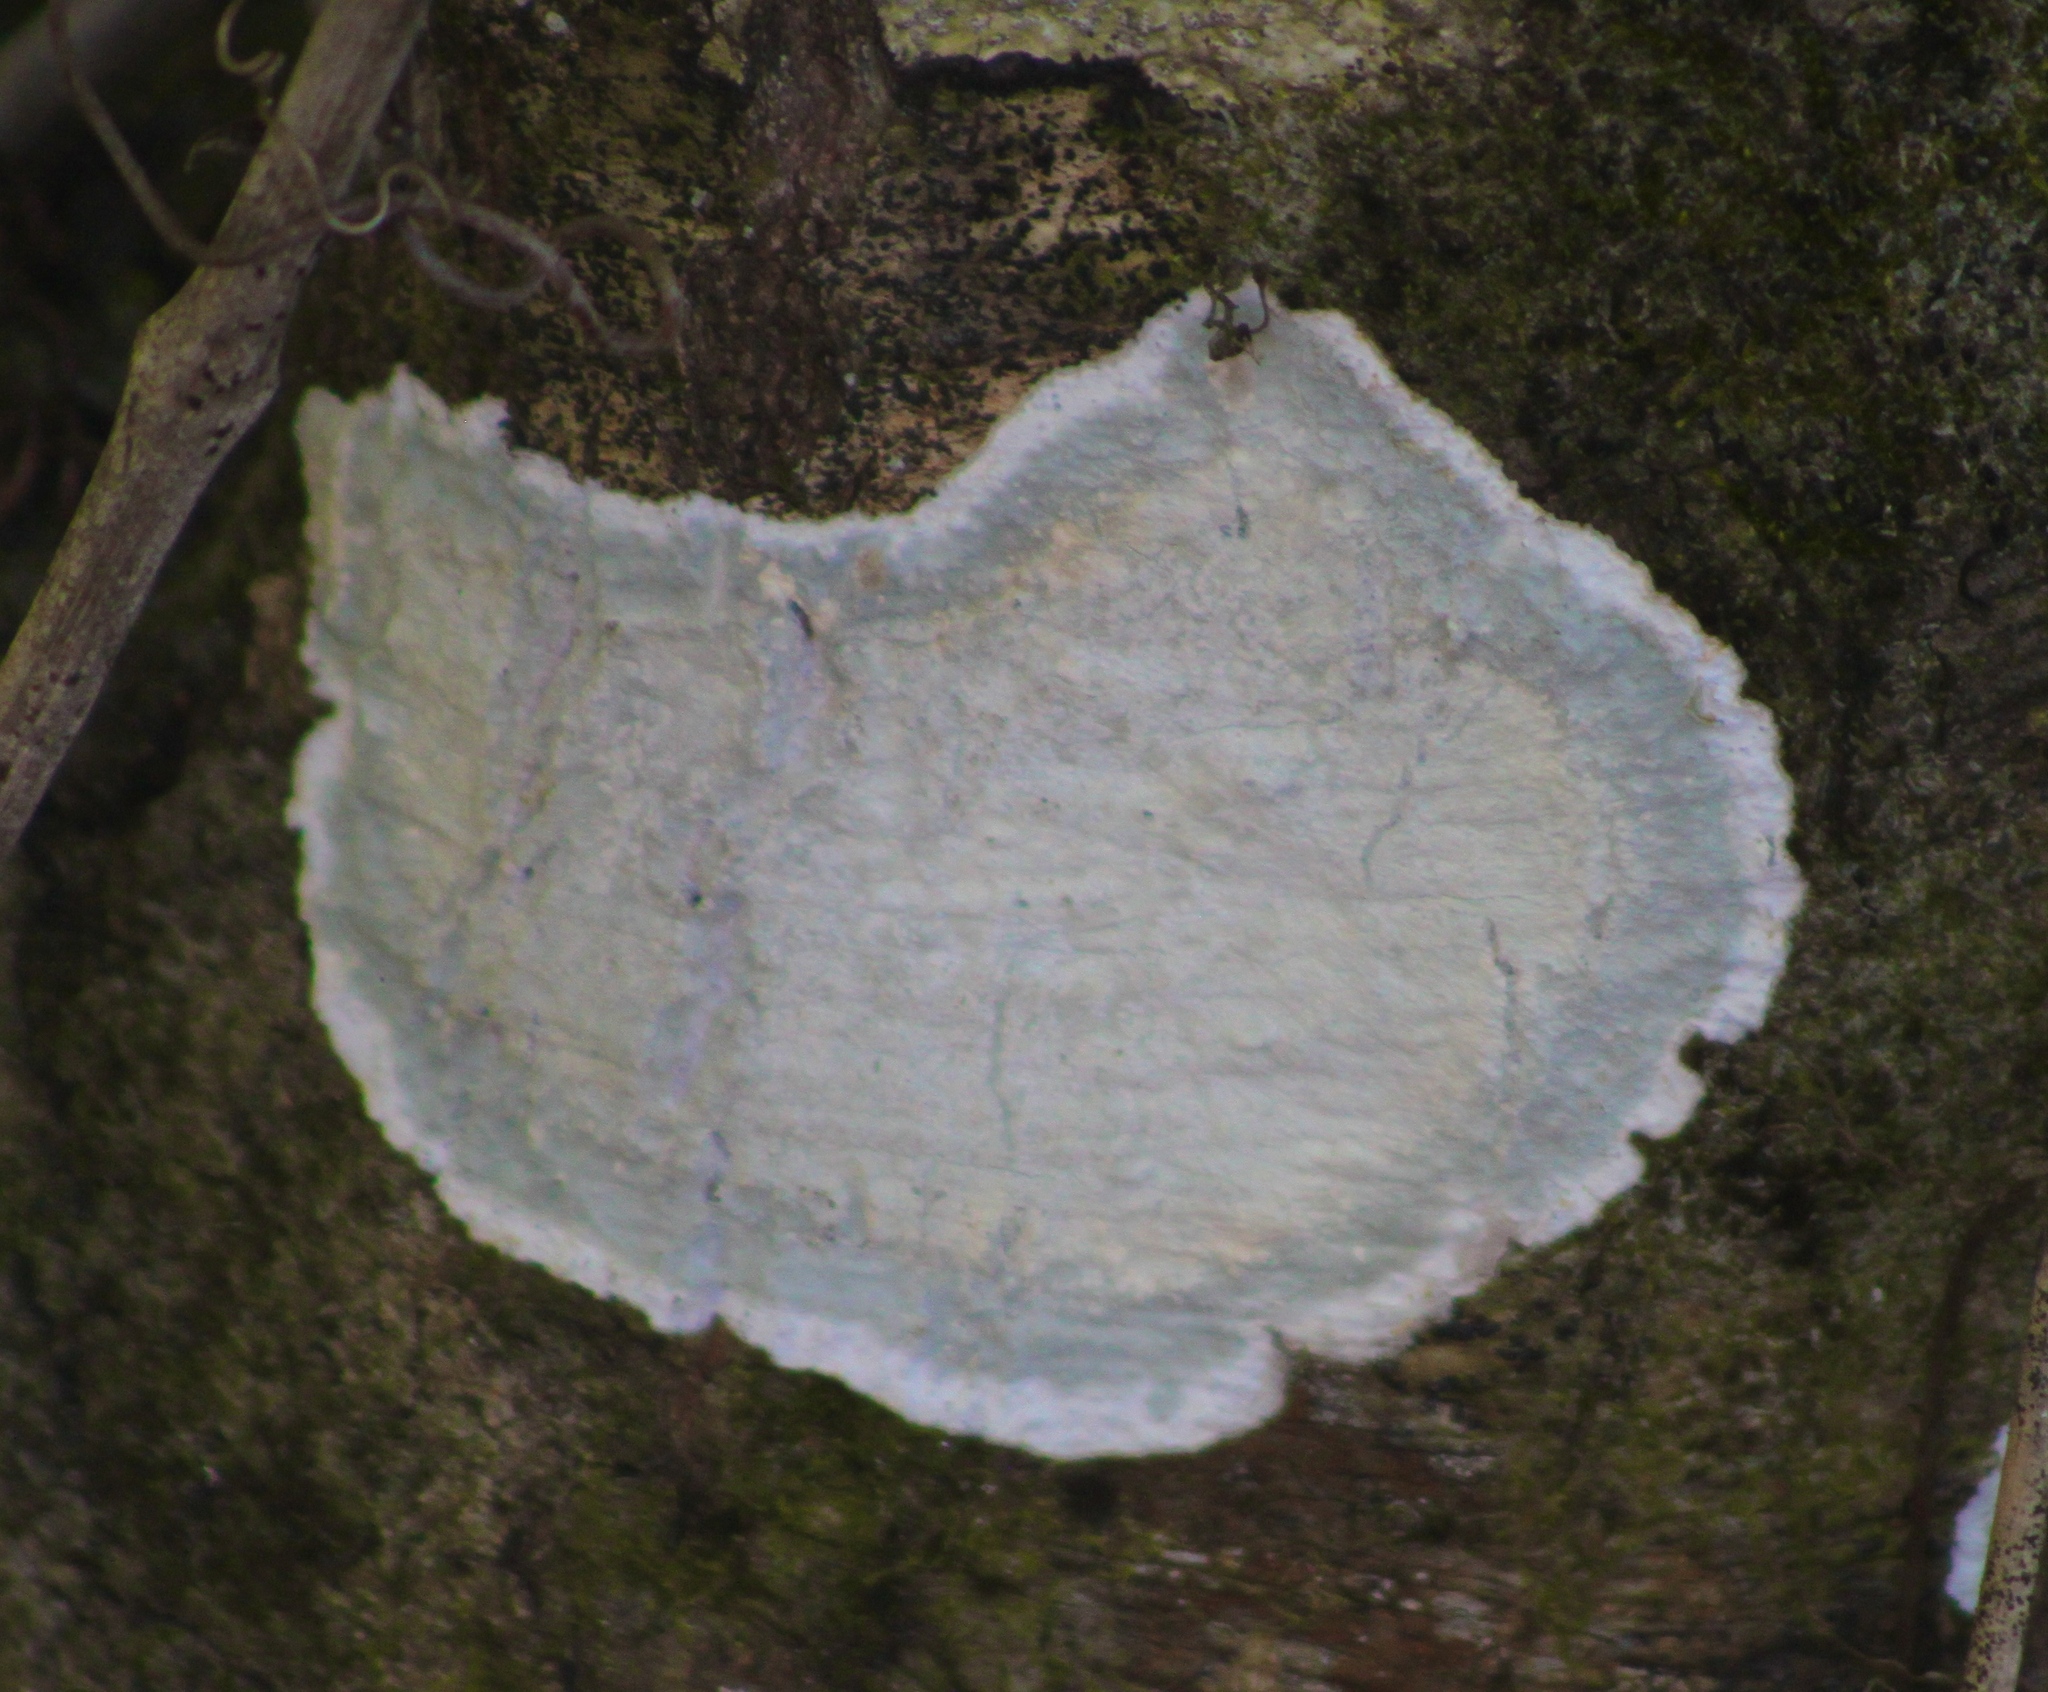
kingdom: Fungi
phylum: Ascomycota
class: Arthoniomycetes
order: Arthoniales
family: Arthoniaceae
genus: Cryptothecia
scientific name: Cryptothecia striata
